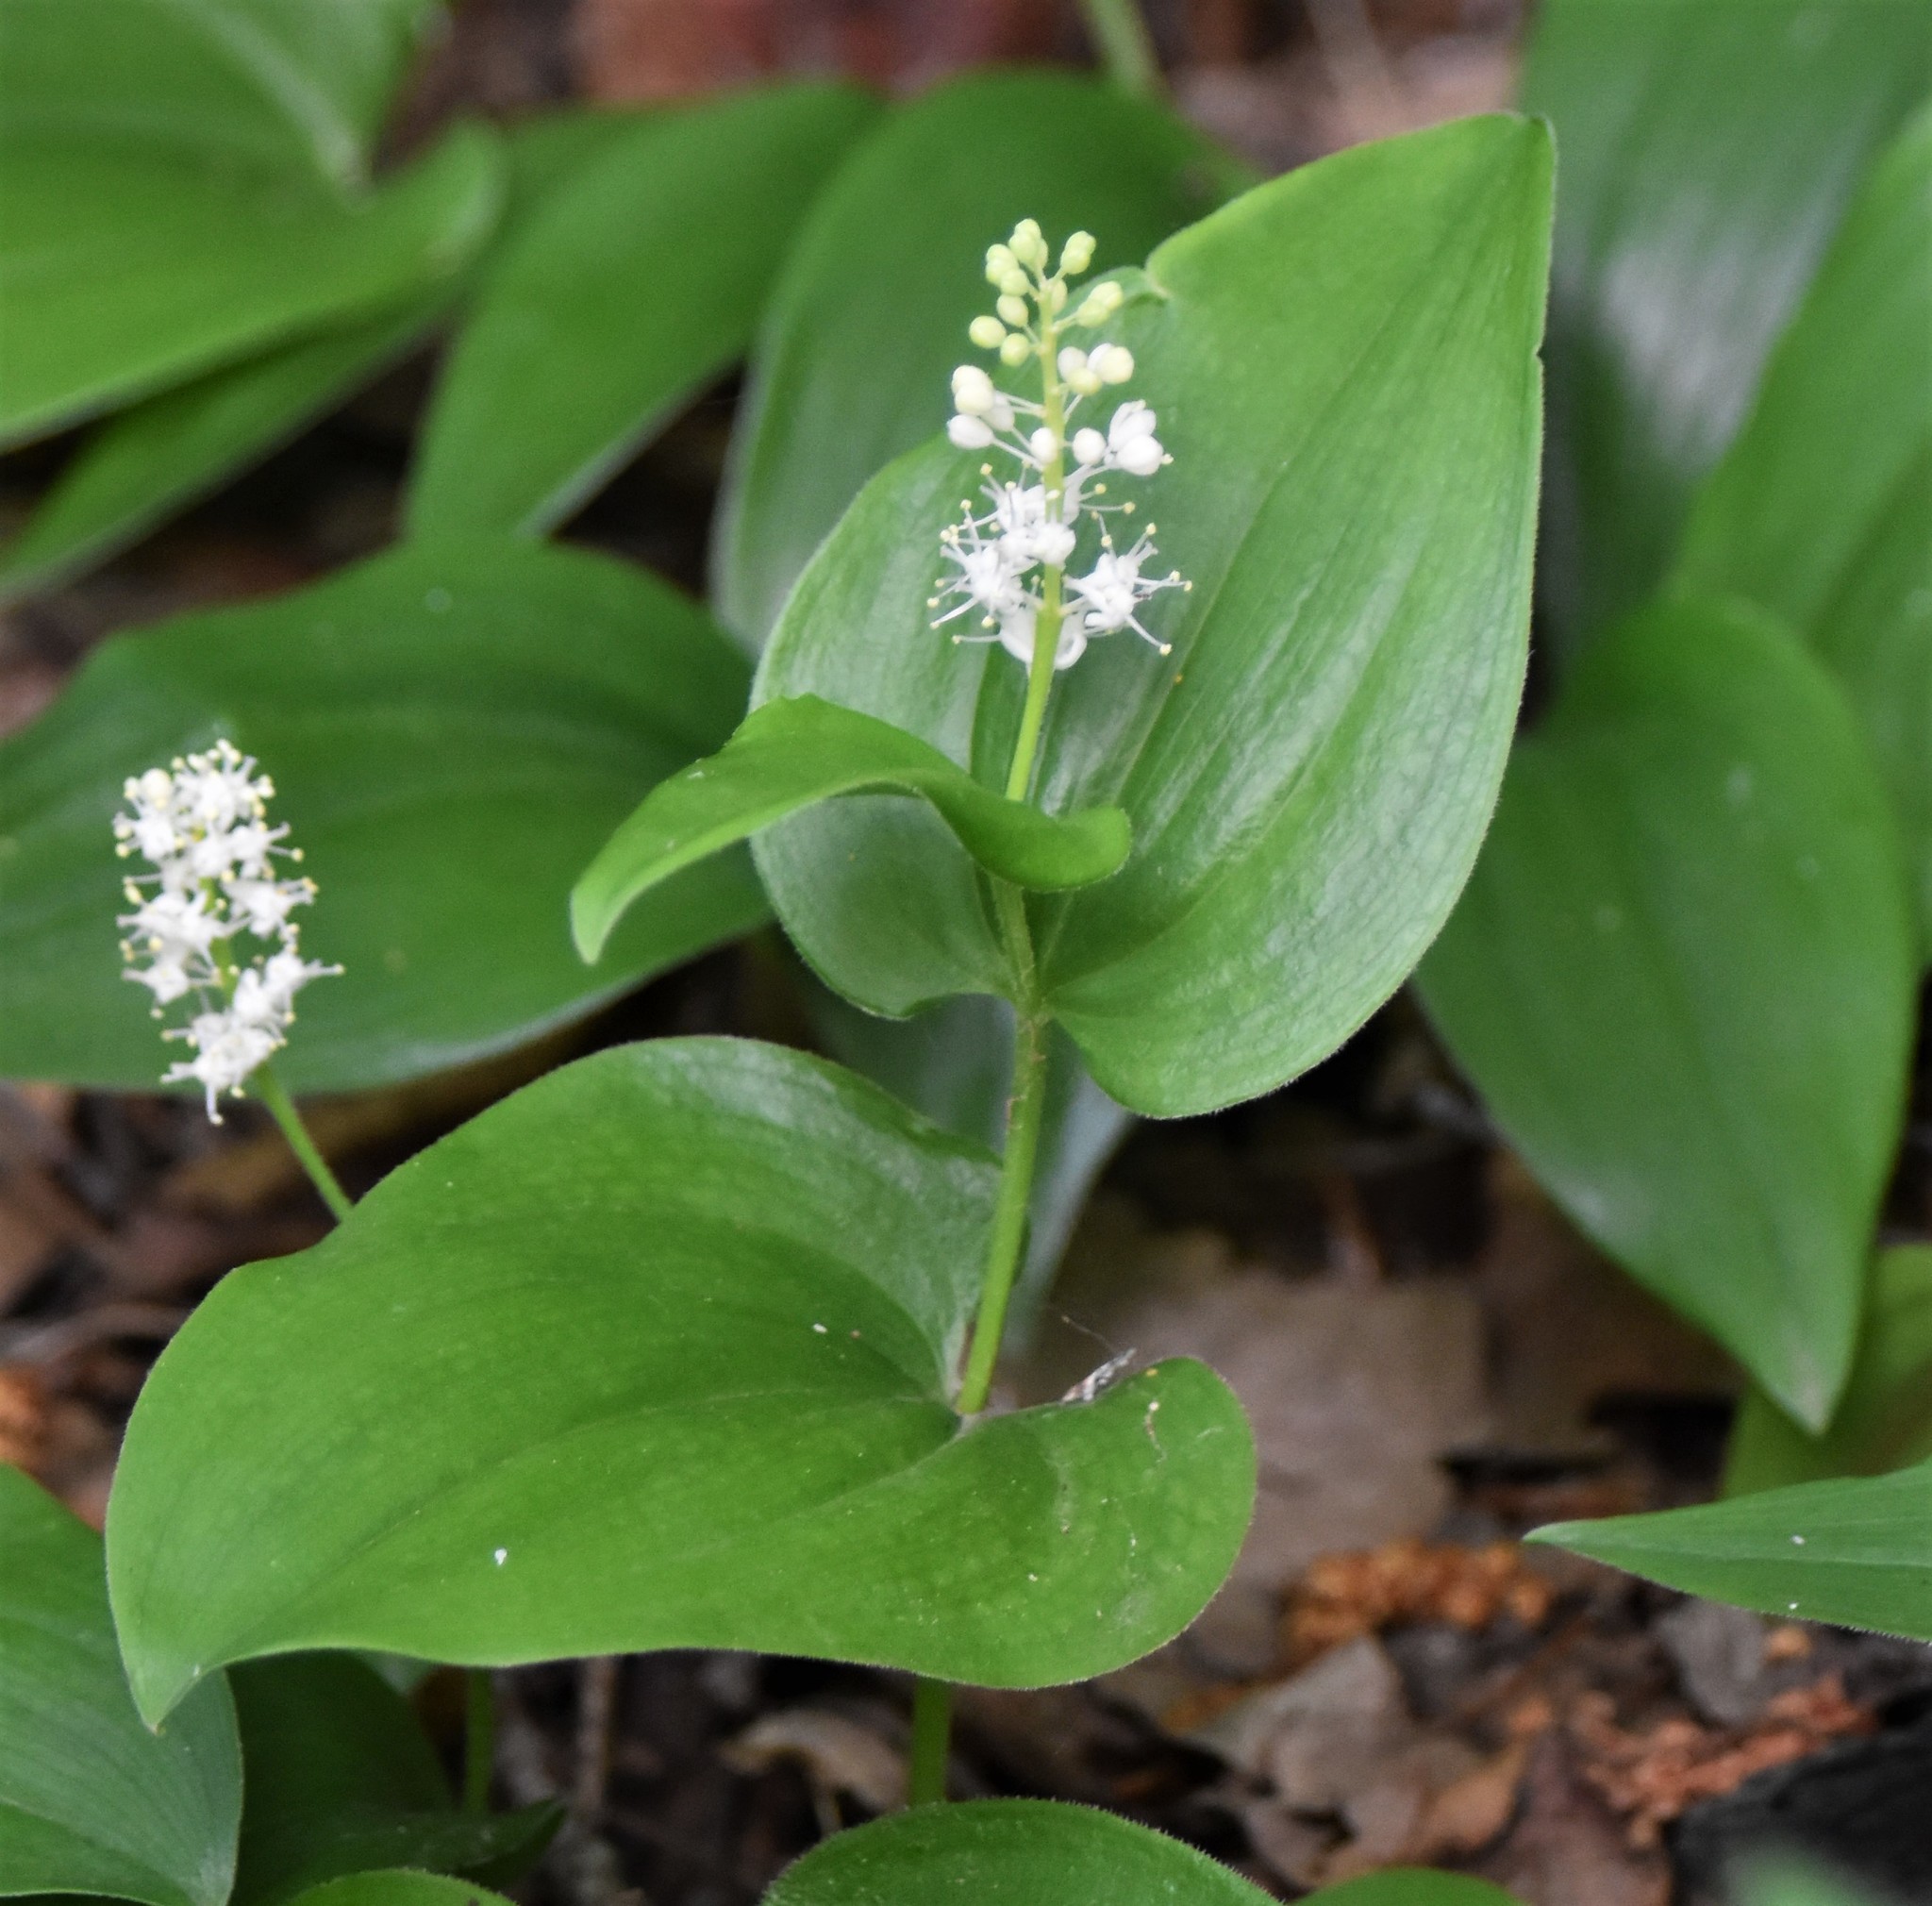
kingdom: Plantae
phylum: Tracheophyta
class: Liliopsida
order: Asparagales
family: Asparagaceae
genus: Maianthemum
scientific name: Maianthemum canadense
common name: False lily-of-the-valley
